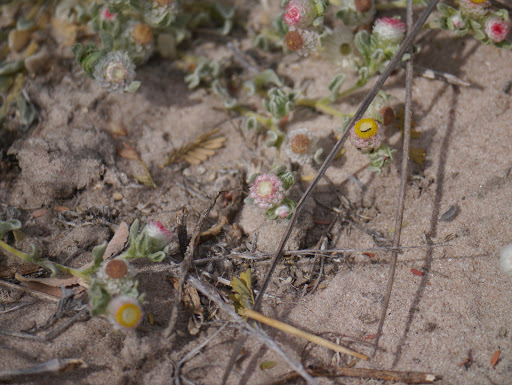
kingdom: Plantae
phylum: Tracheophyta
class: Magnoliopsida
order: Asterales
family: Asteraceae
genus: Helichrysum
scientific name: Helichrysum argyrosphaerum
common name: Wild everlasting
